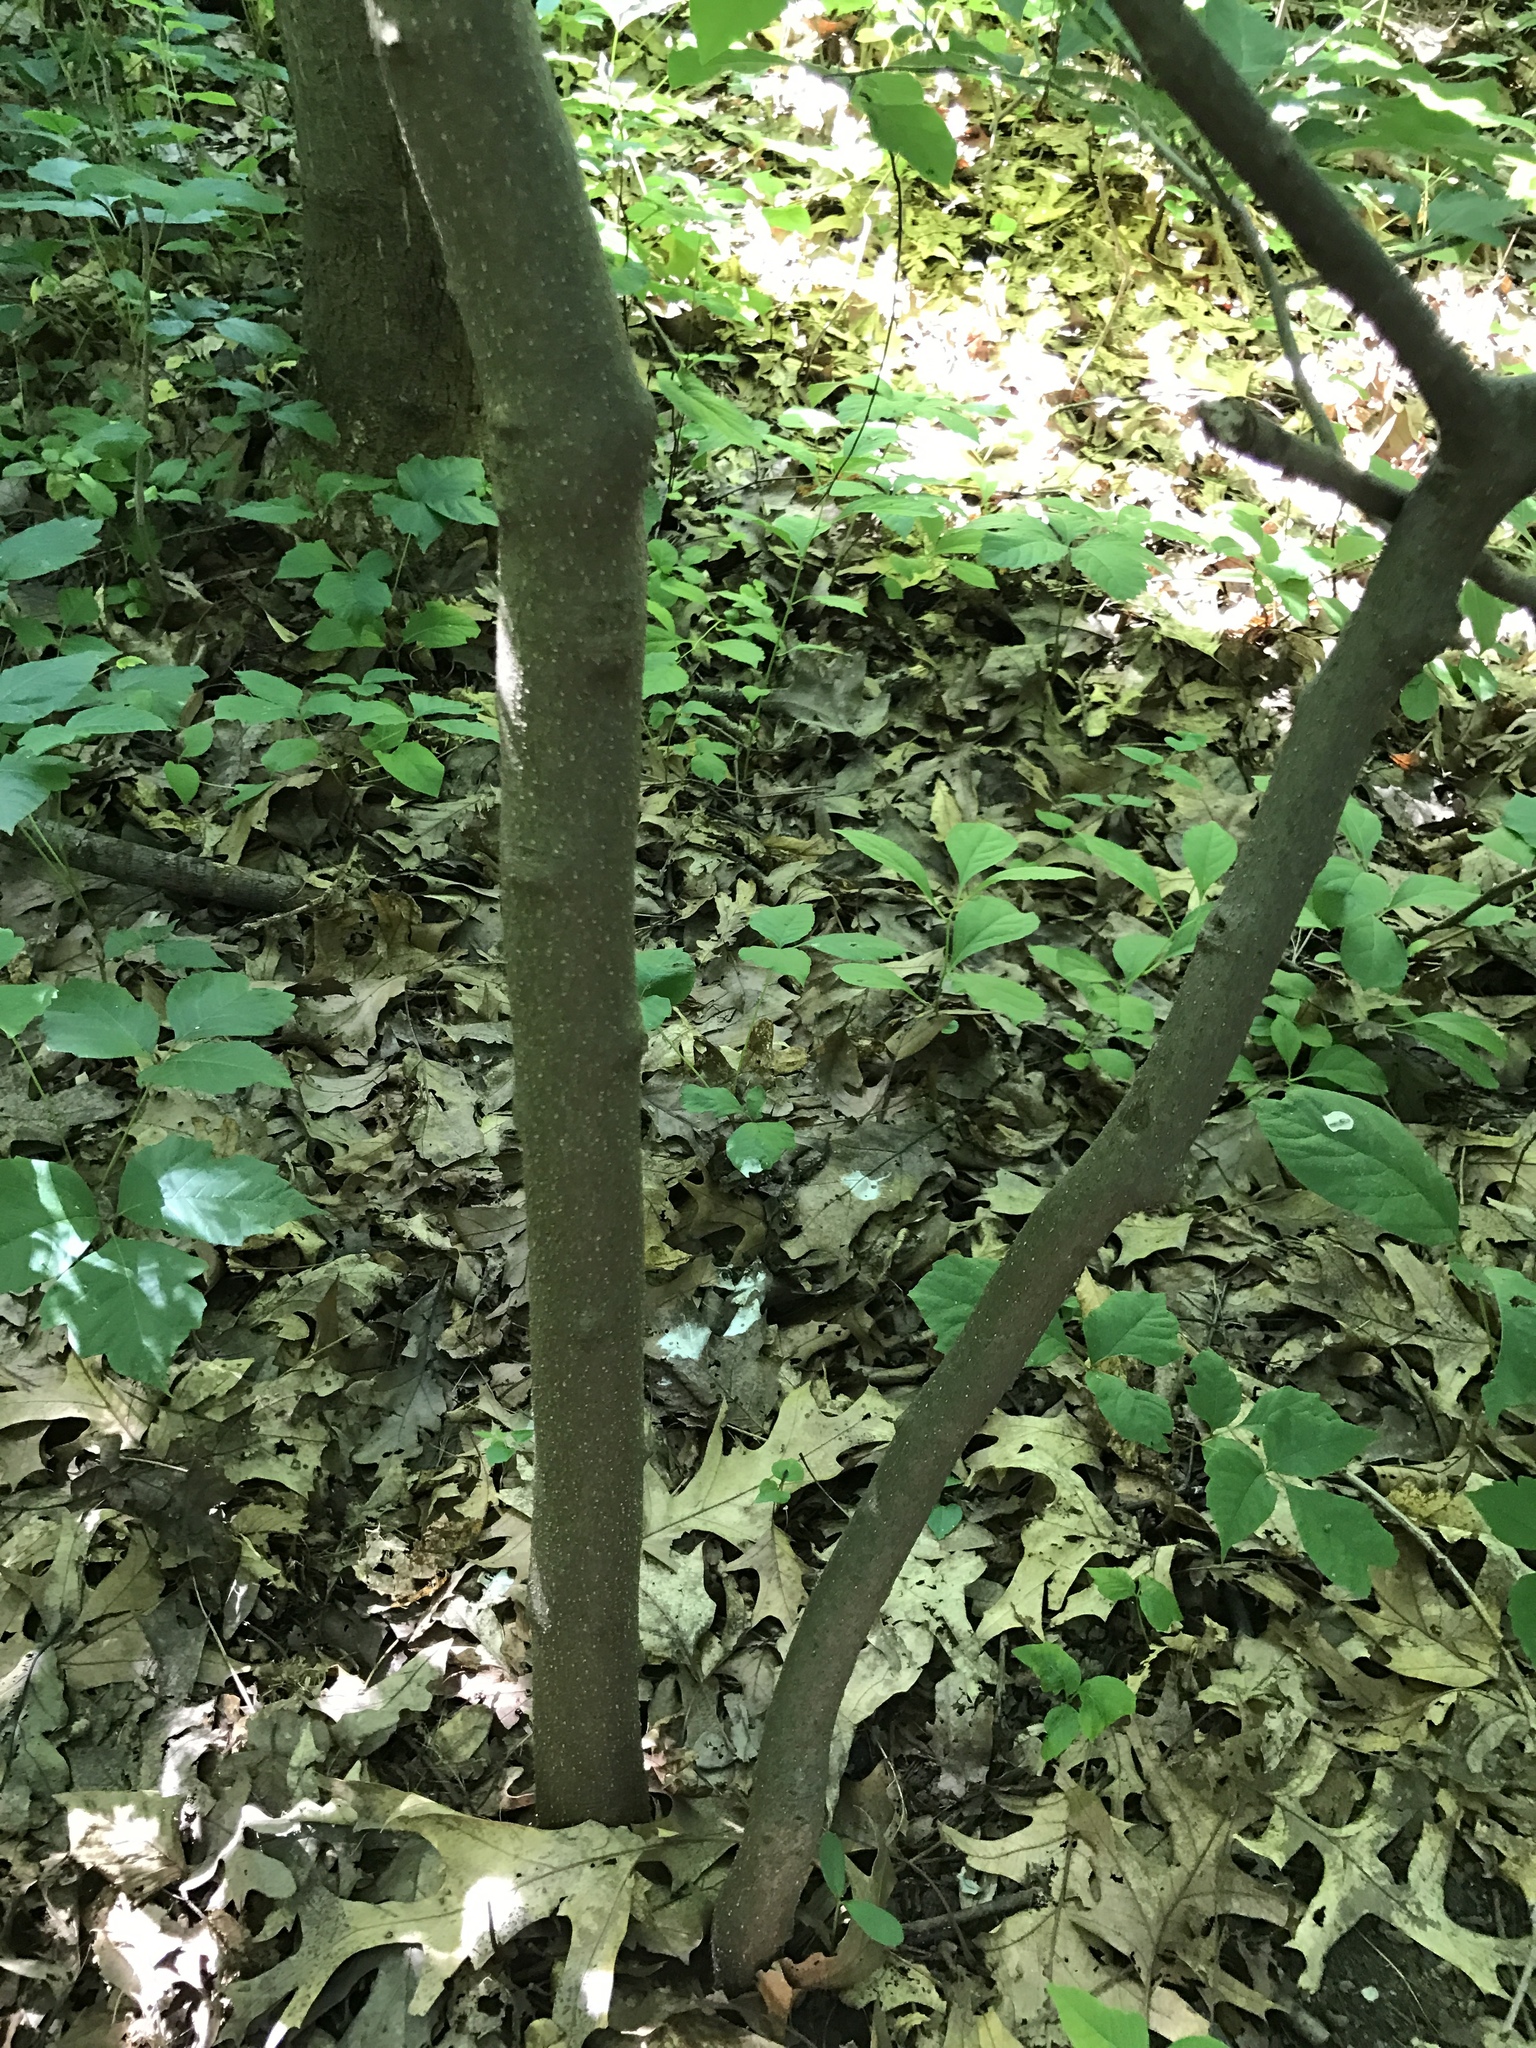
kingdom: Plantae
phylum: Tracheophyta
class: Magnoliopsida
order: Laurales
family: Lauraceae
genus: Lindera
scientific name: Lindera benzoin
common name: Spicebush
